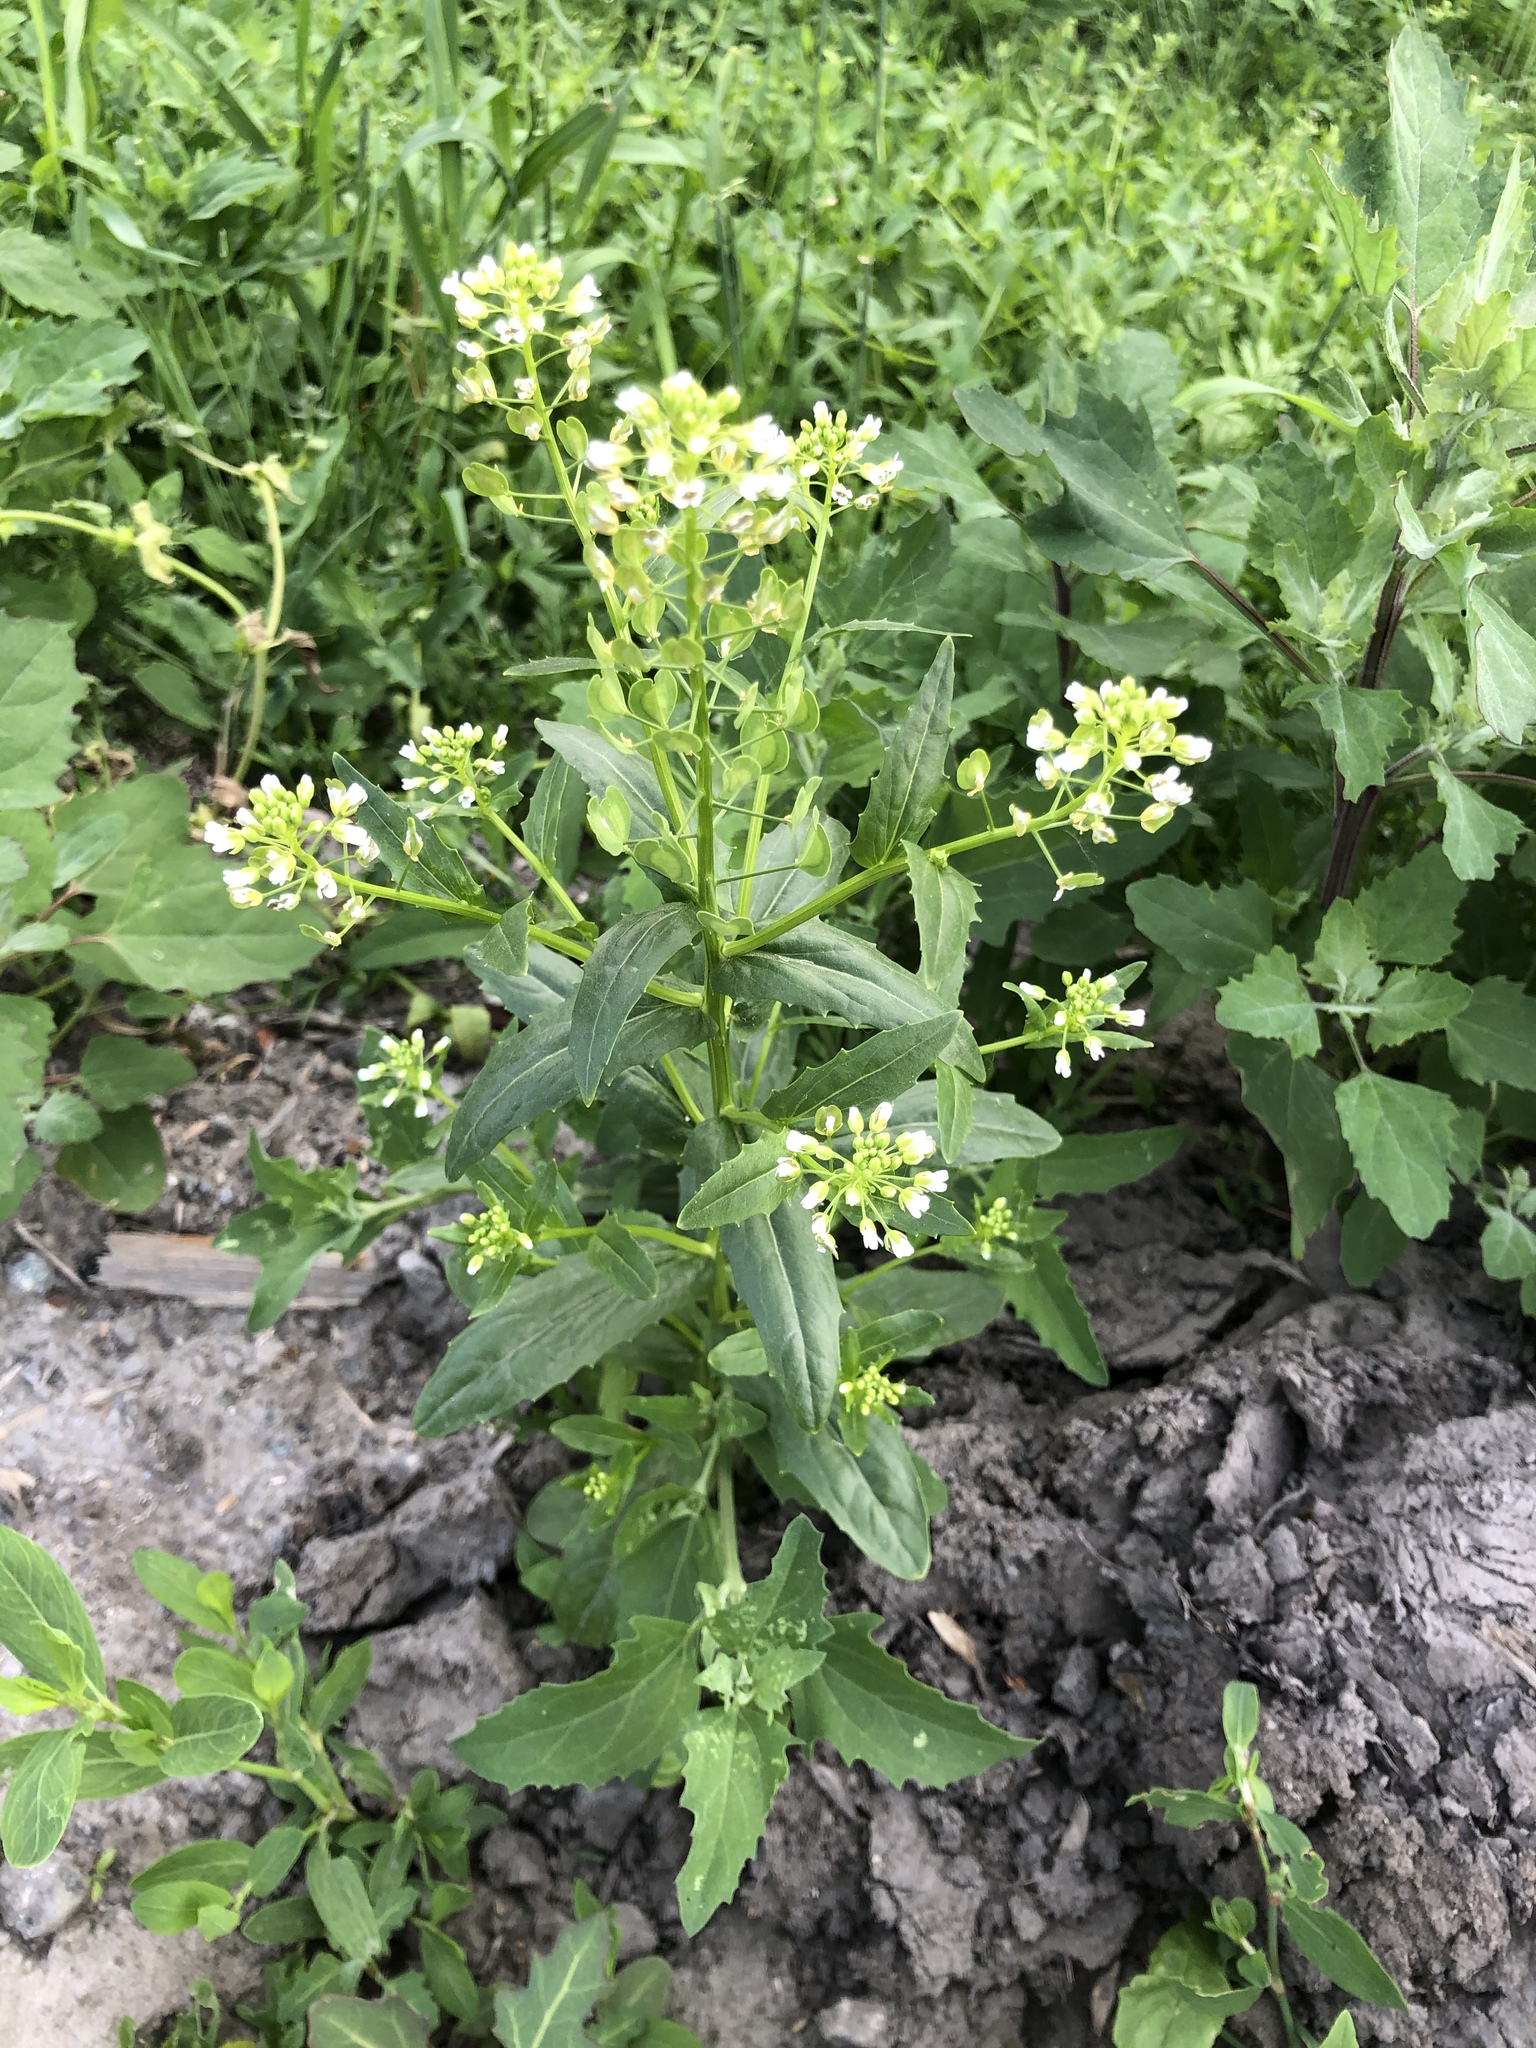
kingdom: Plantae
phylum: Tracheophyta
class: Magnoliopsida
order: Brassicales
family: Brassicaceae
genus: Thlaspi
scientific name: Thlaspi arvense
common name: Field pennycress
